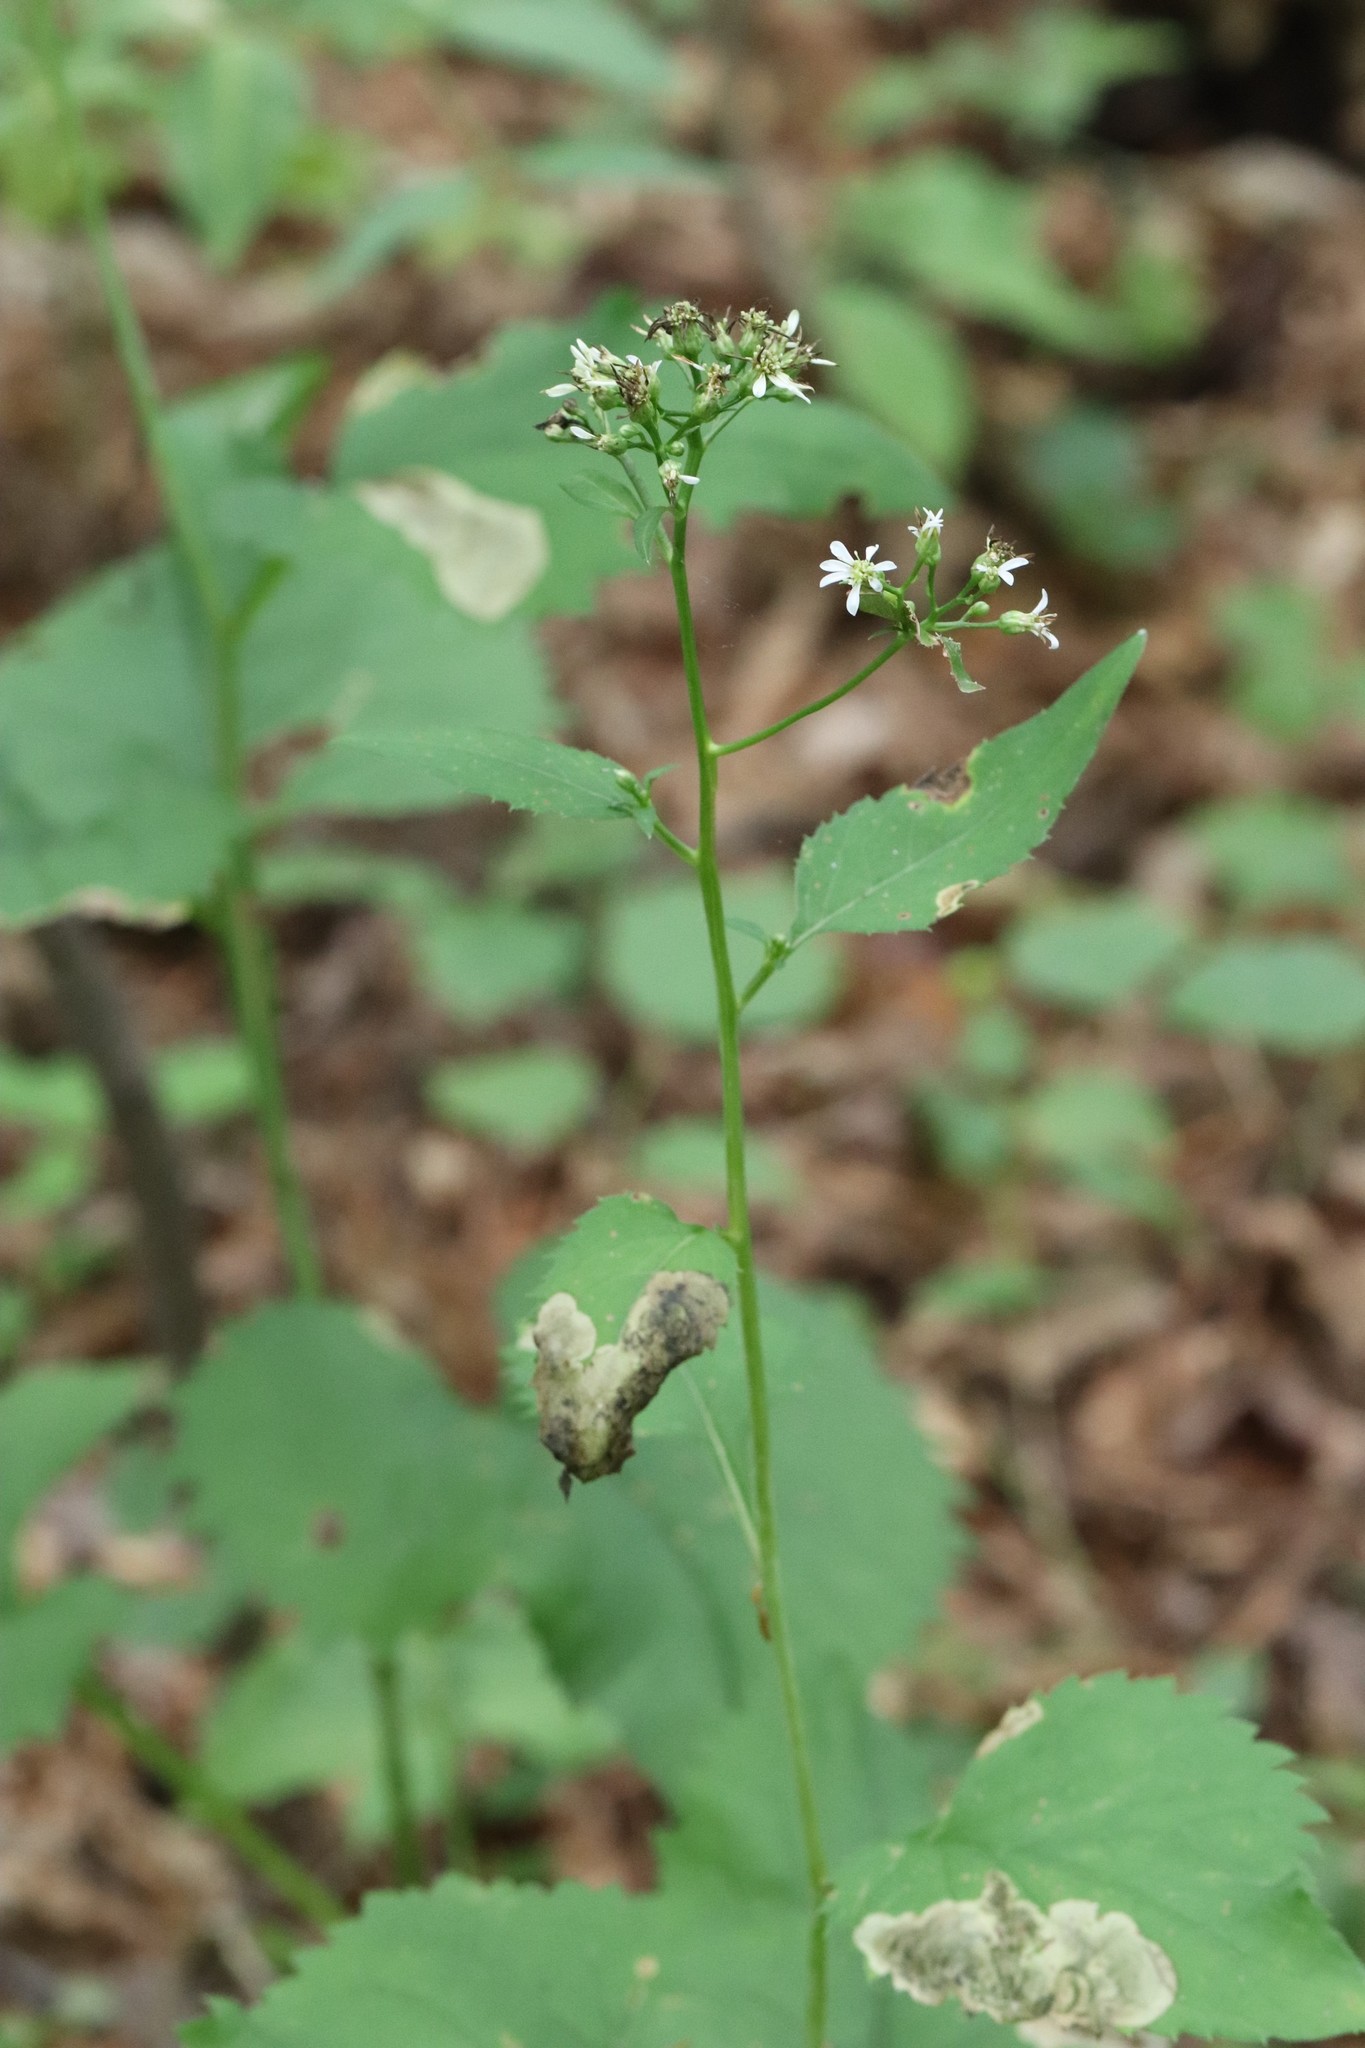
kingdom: Plantae
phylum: Tracheophyta
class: Magnoliopsida
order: Asterales
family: Asteraceae
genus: Aster
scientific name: Aster scaber
